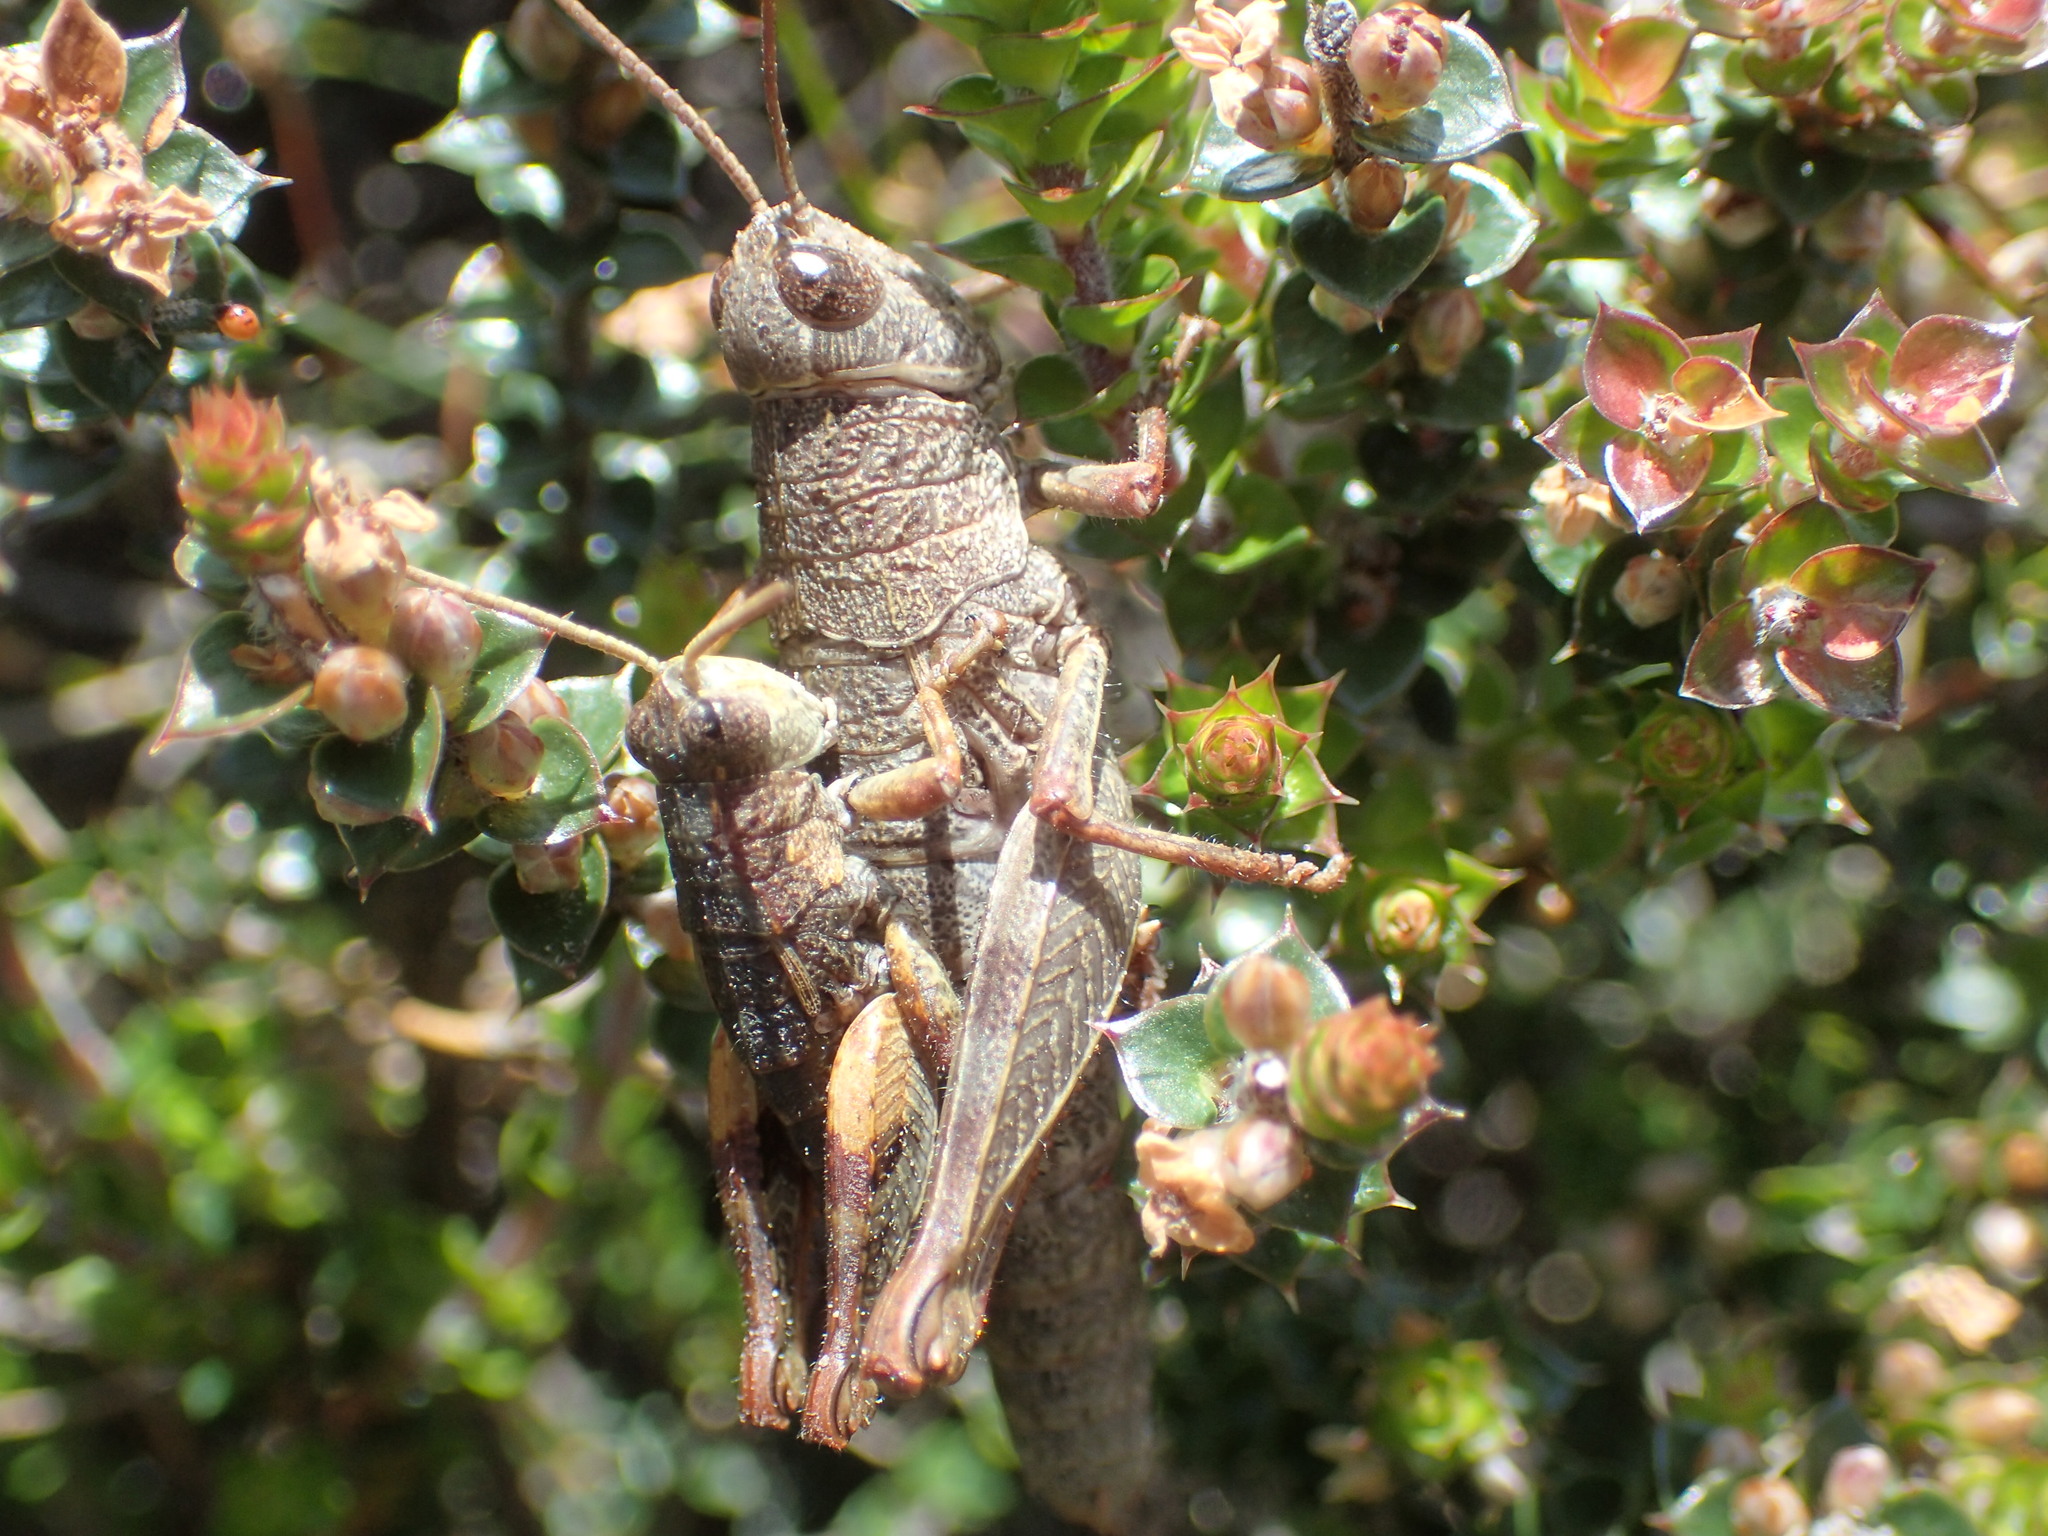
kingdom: Animalia
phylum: Arthropoda
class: Insecta
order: Orthoptera
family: Acrididae
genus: Tasmaniacris
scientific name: Tasmaniacris tasmaniensis
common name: Tasmanian grasshopper
